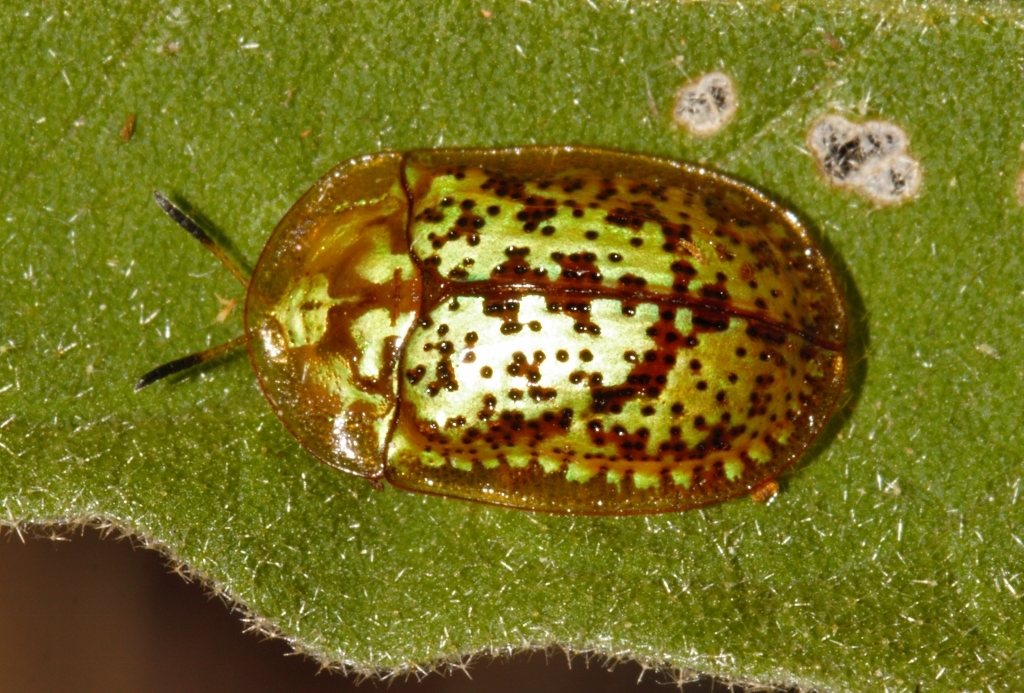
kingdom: Animalia
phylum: Arthropoda
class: Insecta
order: Coleoptera
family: Chrysomelidae
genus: Conchyloctenia
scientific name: Conchyloctenia hybrida
